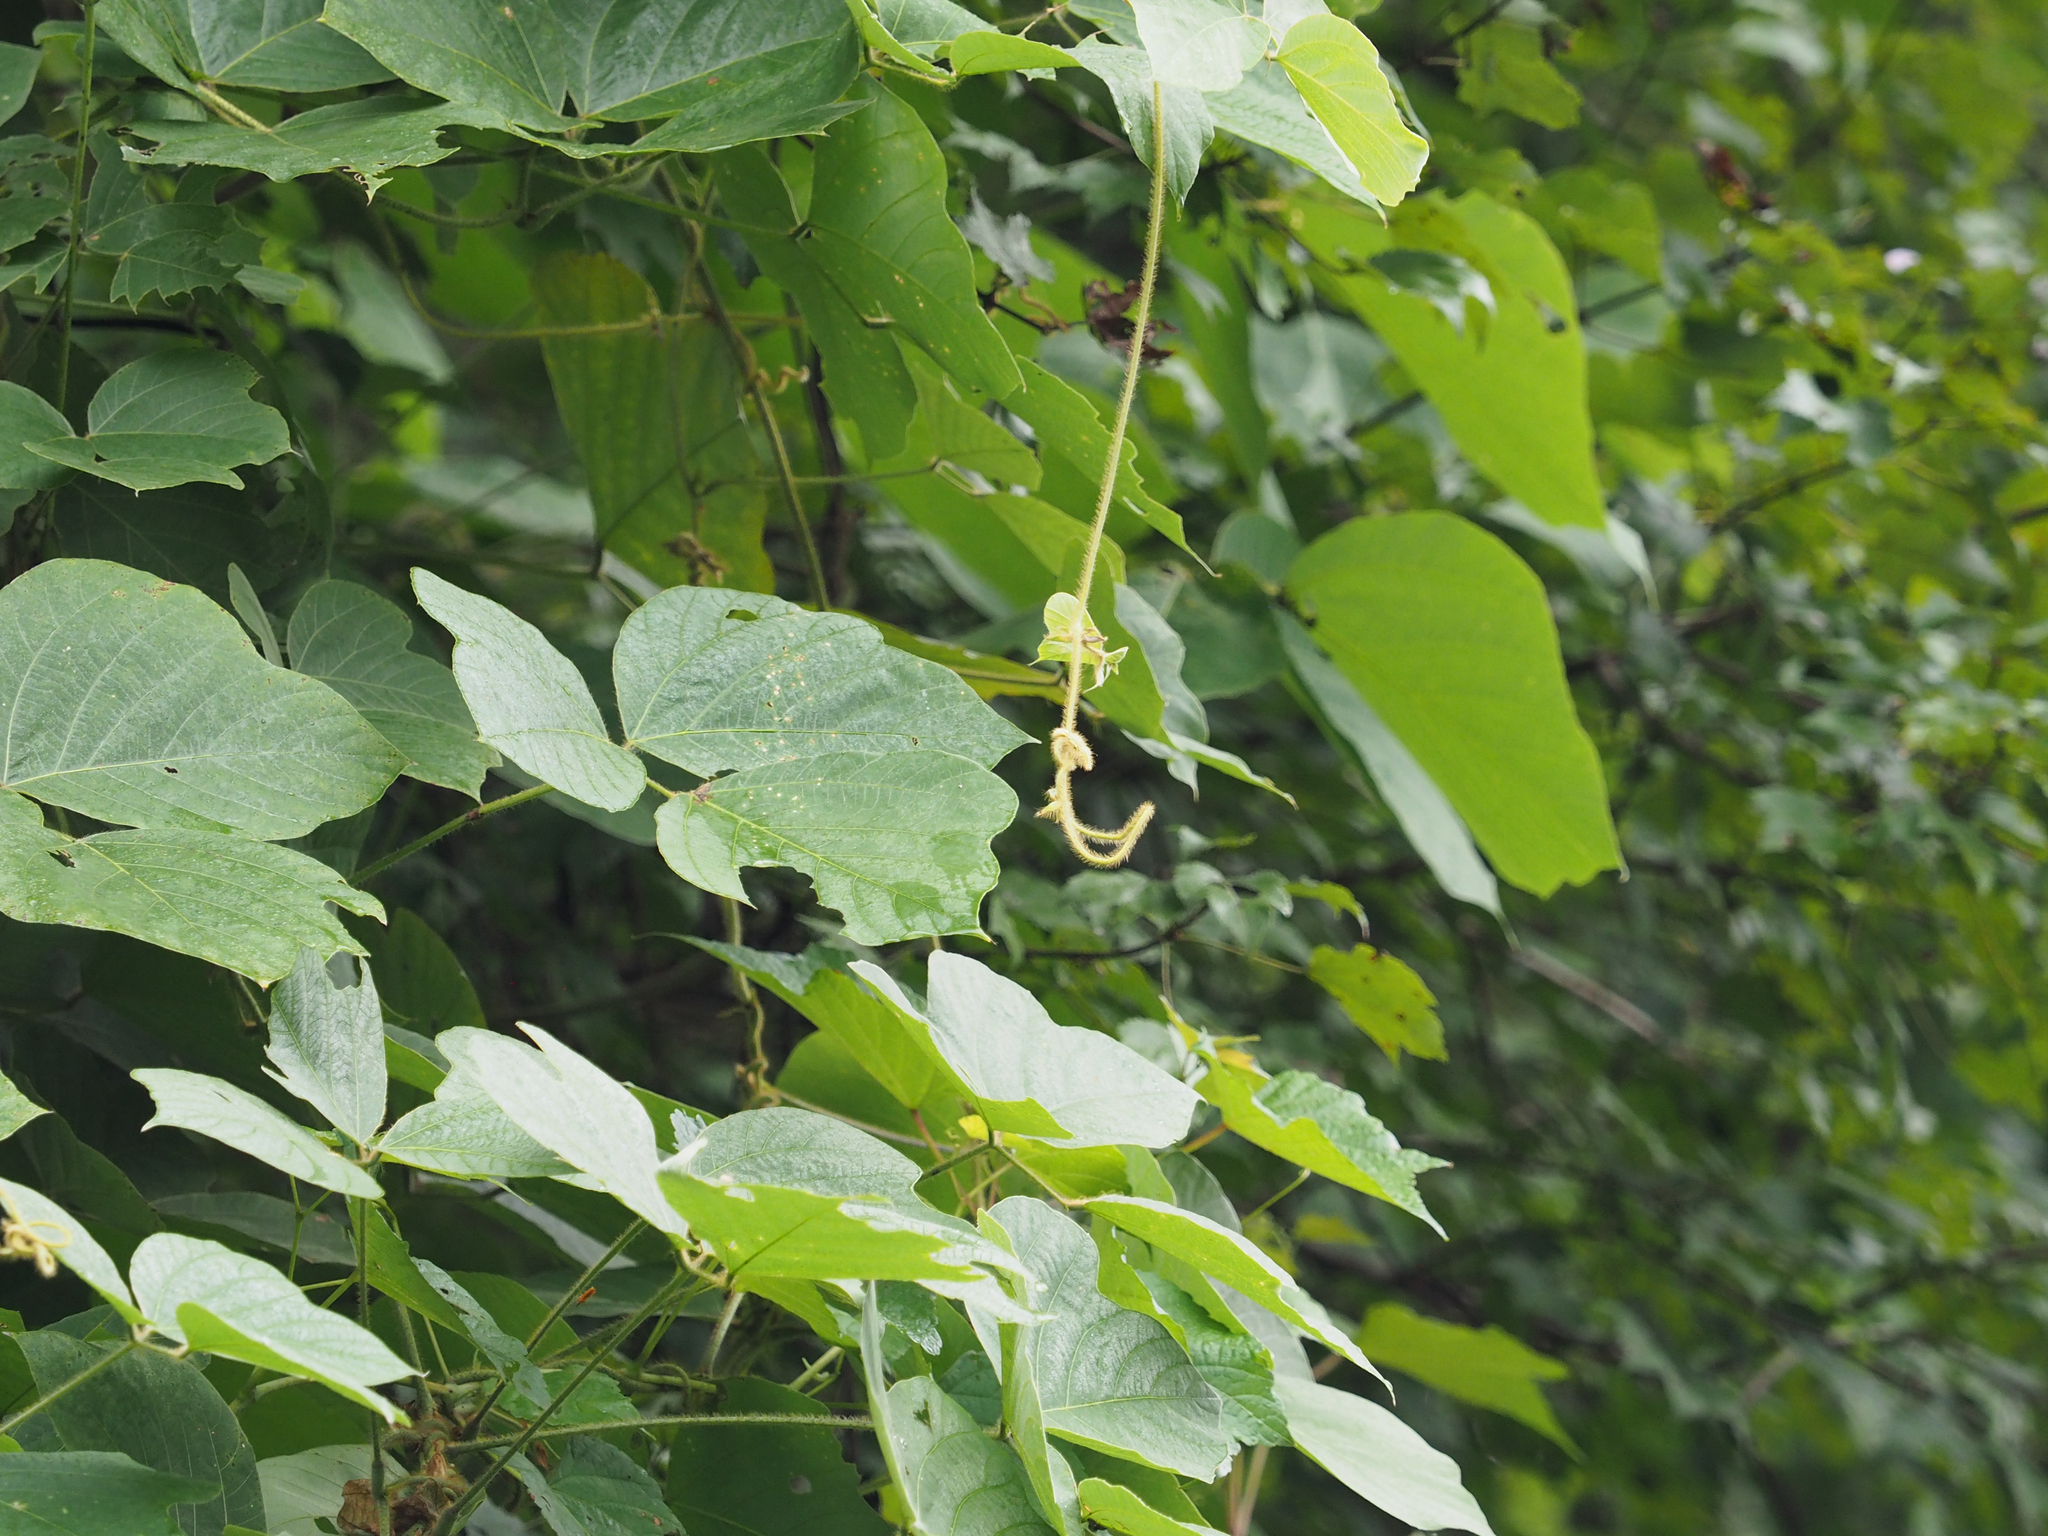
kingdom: Plantae
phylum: Tracheophyta
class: Magnoliopsida
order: Fabales
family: Fabaceae
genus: Pueraria
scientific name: Pueraria montana
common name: Kudzu
